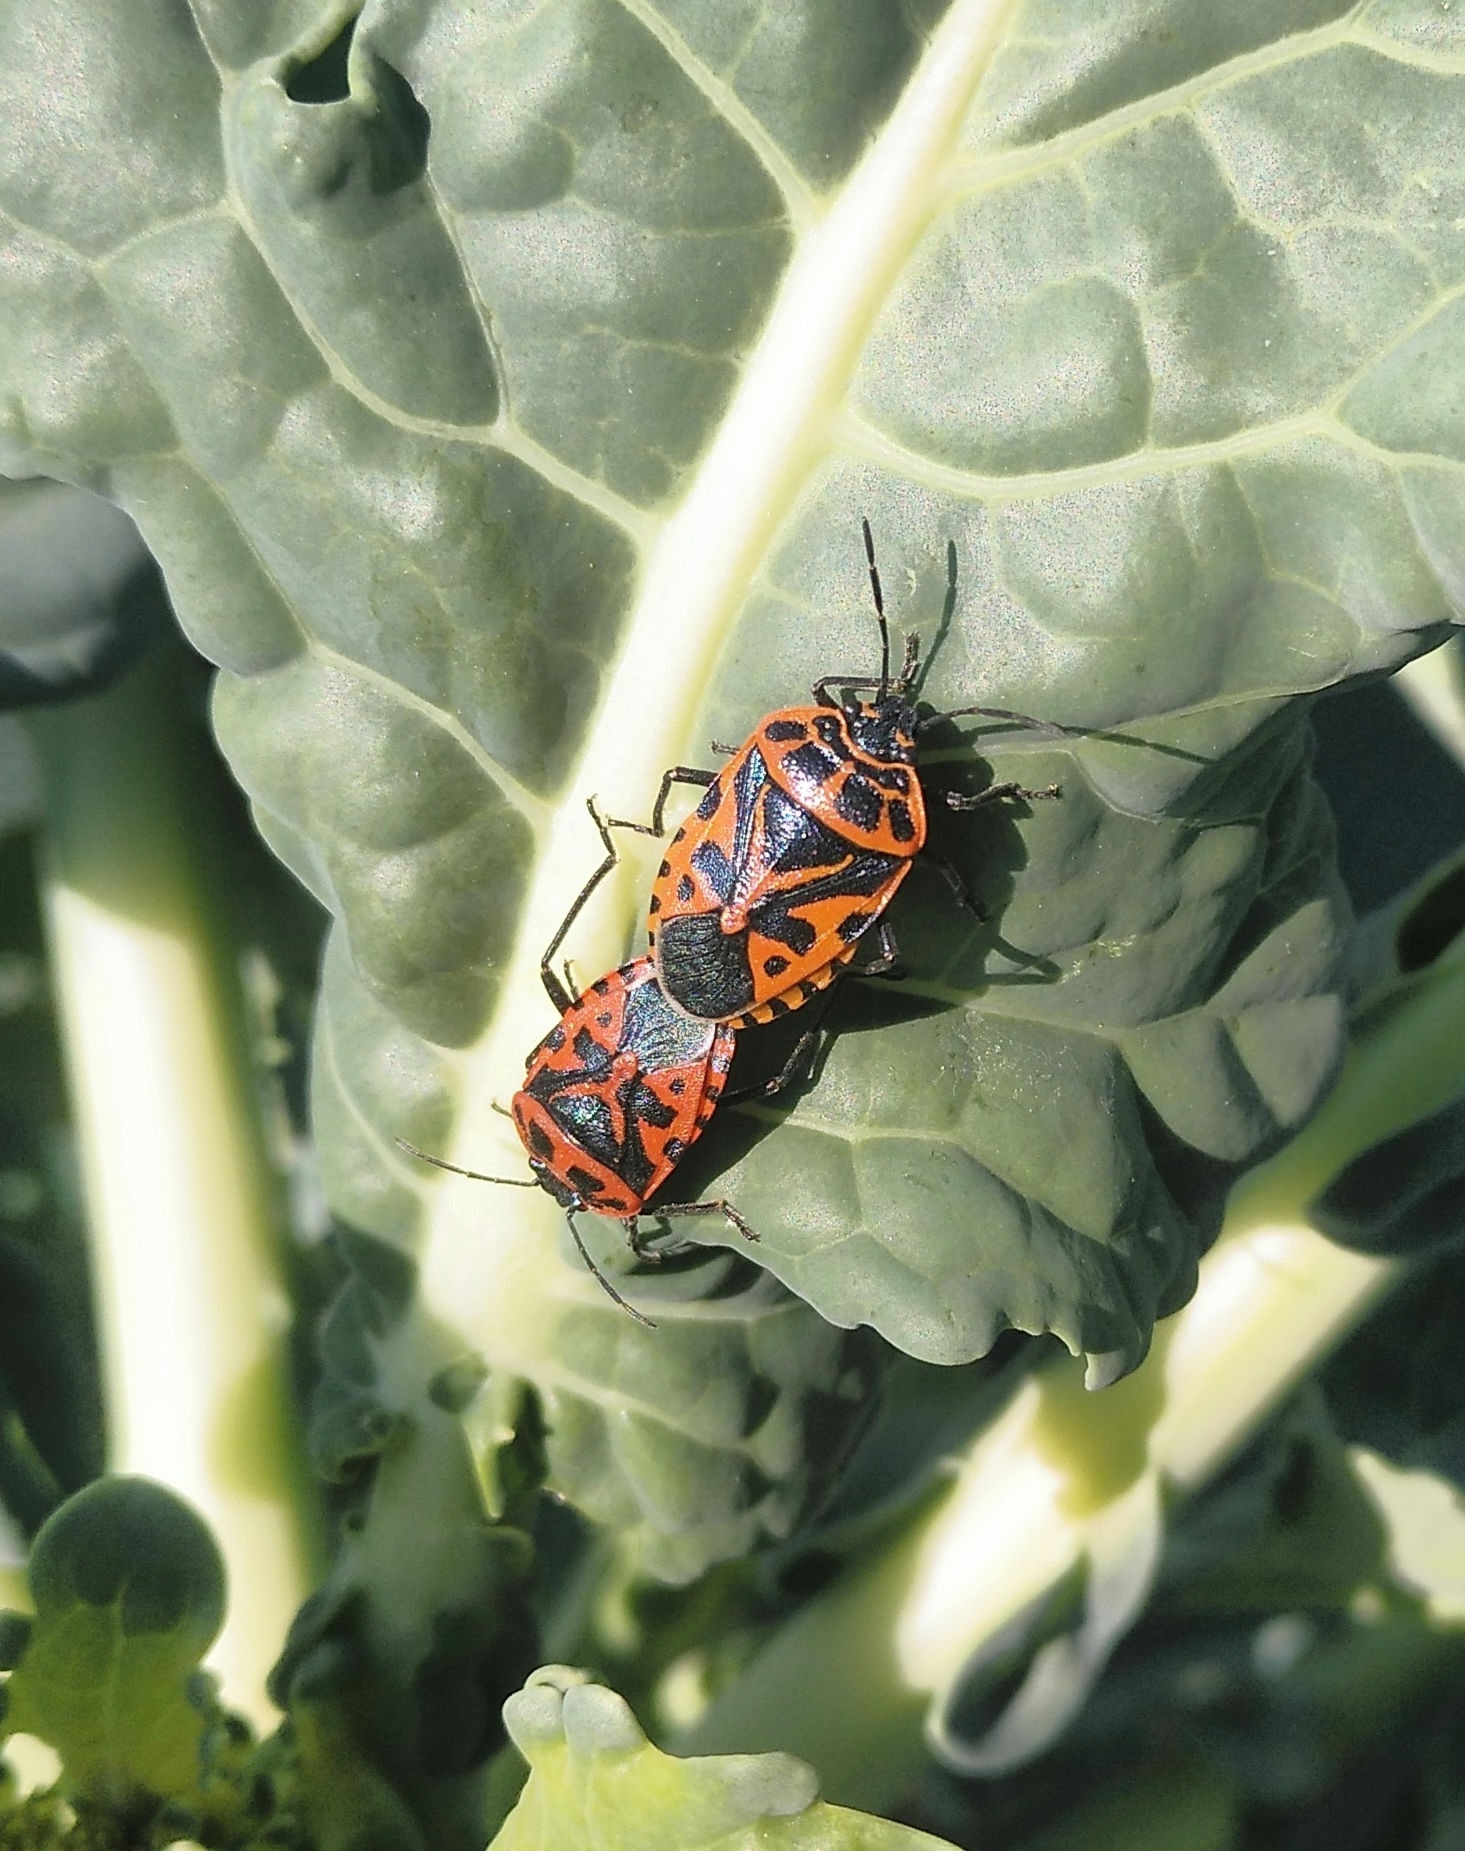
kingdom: Animalia
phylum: Arthropoda
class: Insecta
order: Hemiptera
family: Pentatomidae
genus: Eurydema
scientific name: Eurydema ventralis
